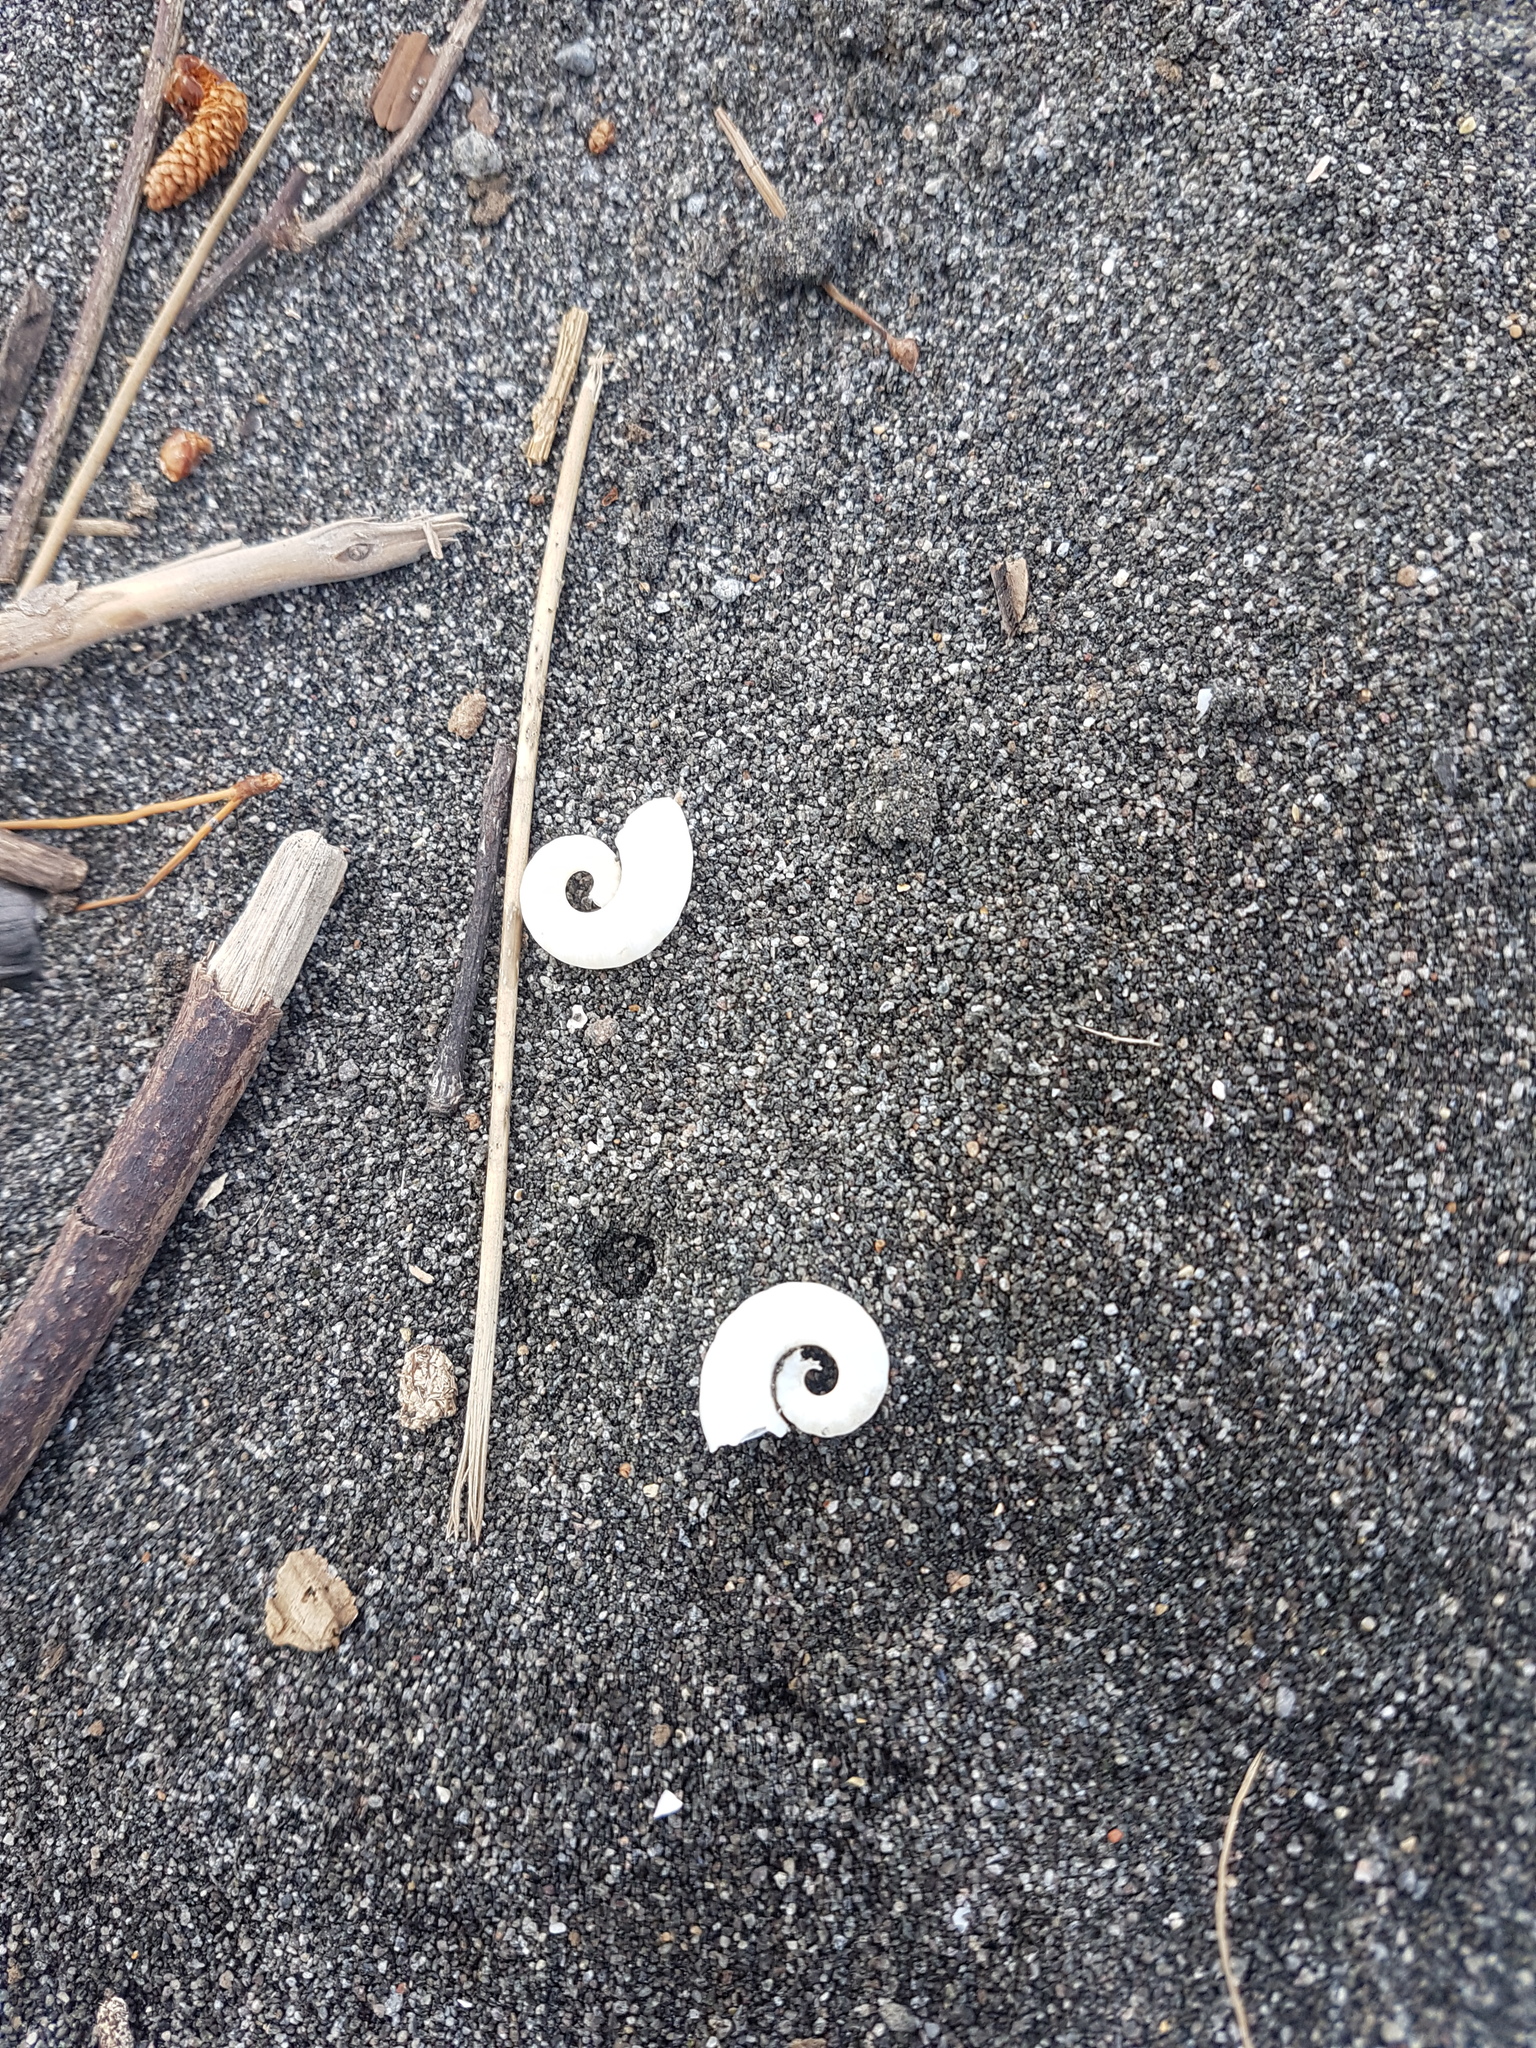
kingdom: Animalia
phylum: Mollusca
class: Cephalopoda
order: Spirulida
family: Spirulidae
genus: Spirula
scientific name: Spirula spirula
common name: Ram's horn squid
